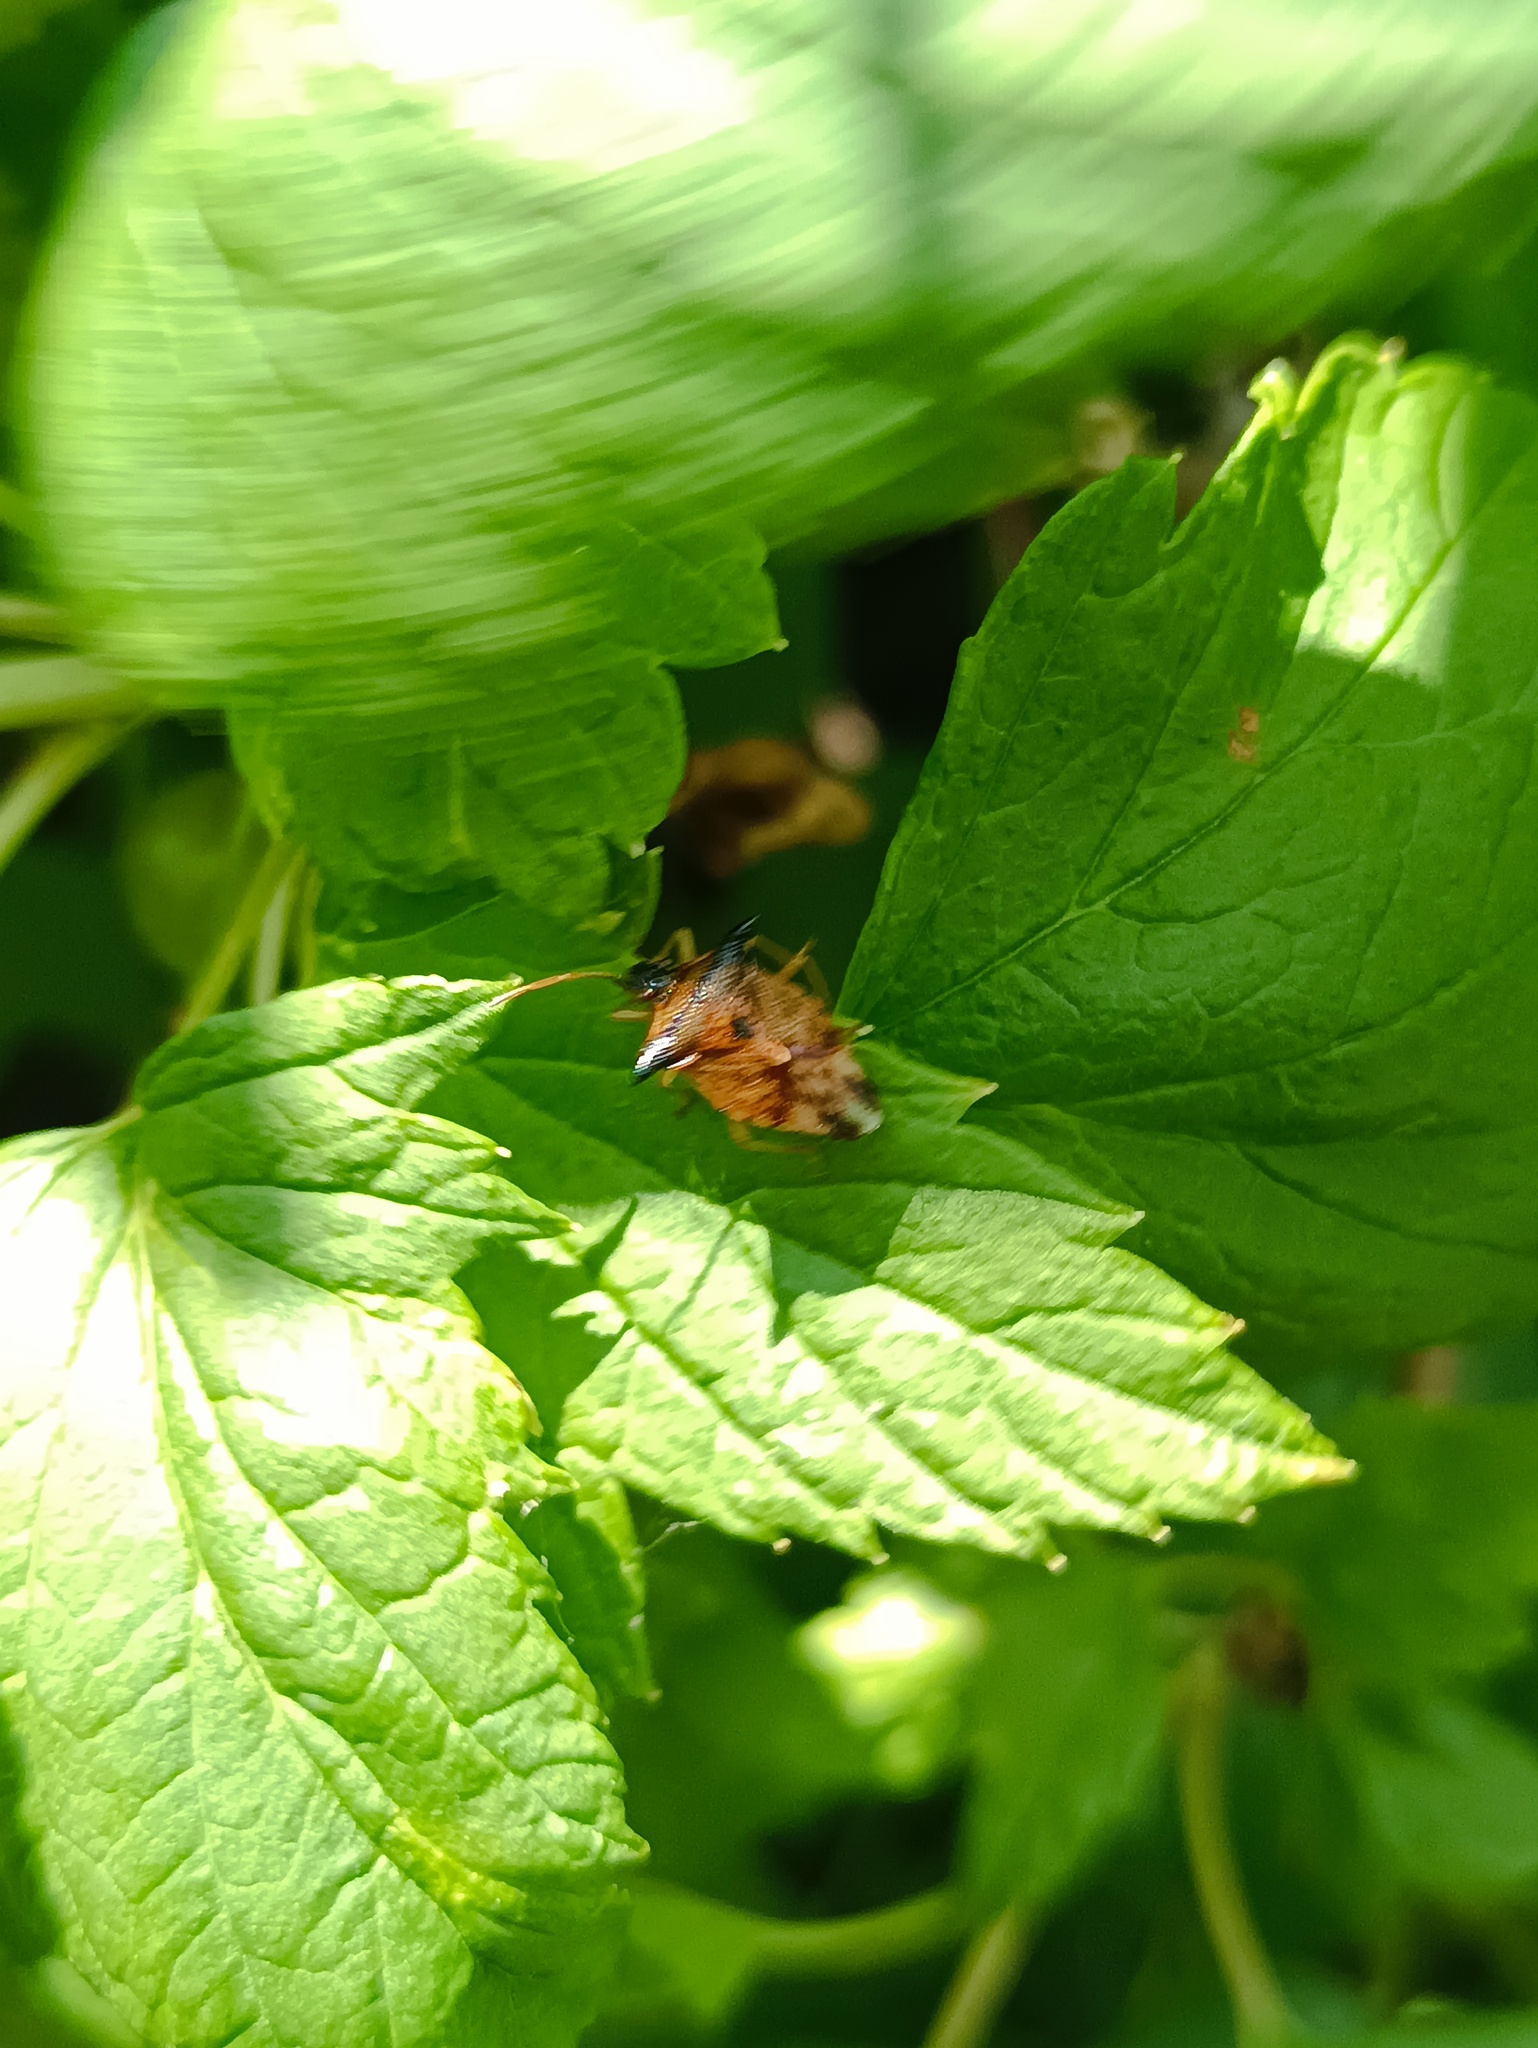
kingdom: Animalia
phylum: Arthropoda
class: Insecta
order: Hemiptera
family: Acanthosomatidae
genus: Elasmucha
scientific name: Elasmucha ferrugata
